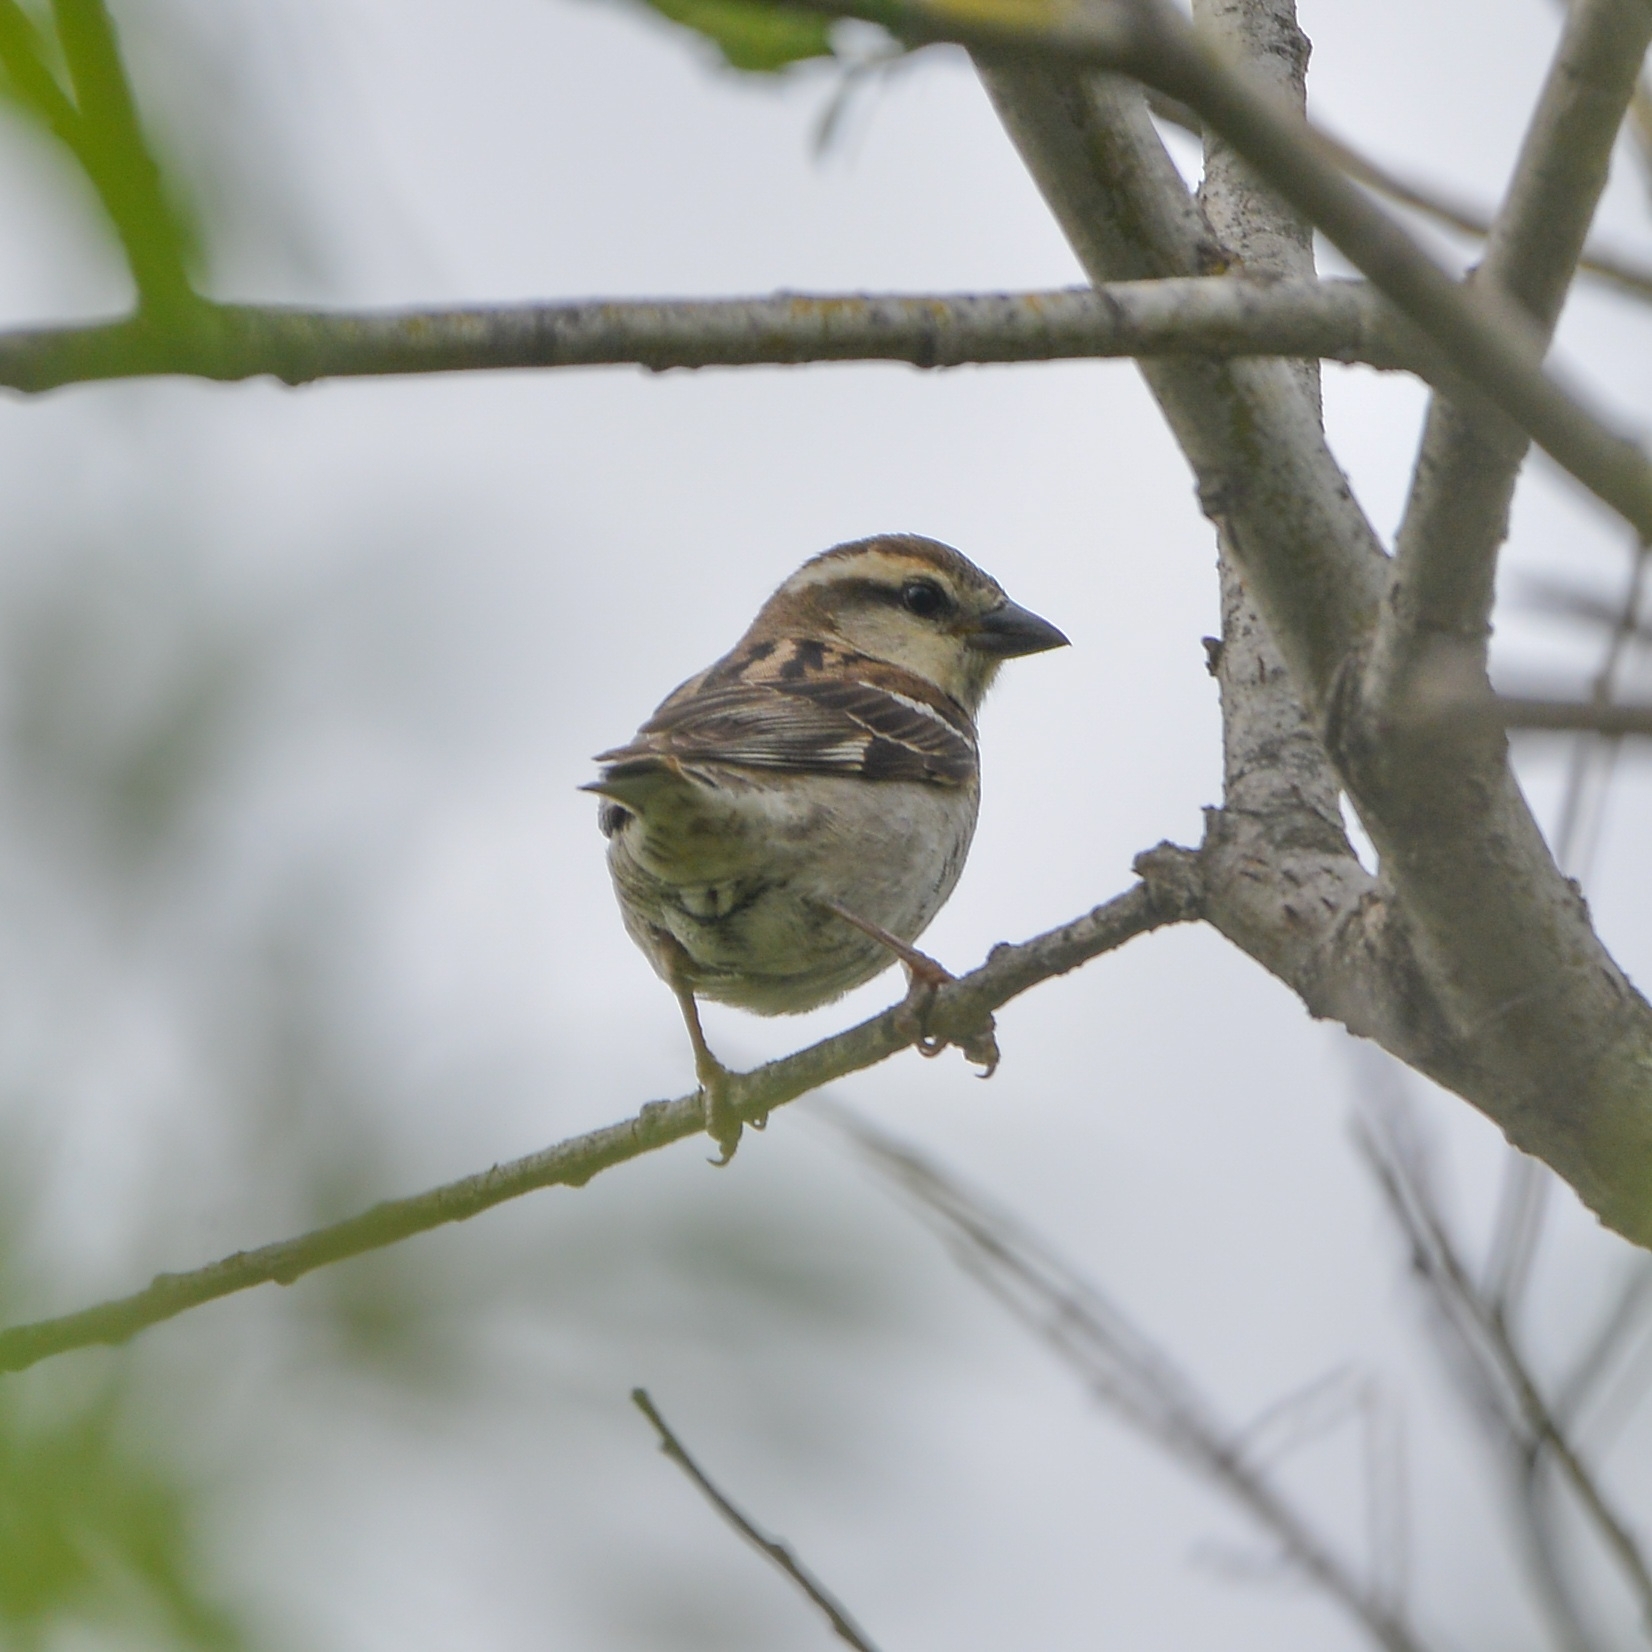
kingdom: Animalia
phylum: Chordata
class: Aves
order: Passeriformes
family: Passeridae
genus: Passer
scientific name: Passer rutilans
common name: Russet sparrow
